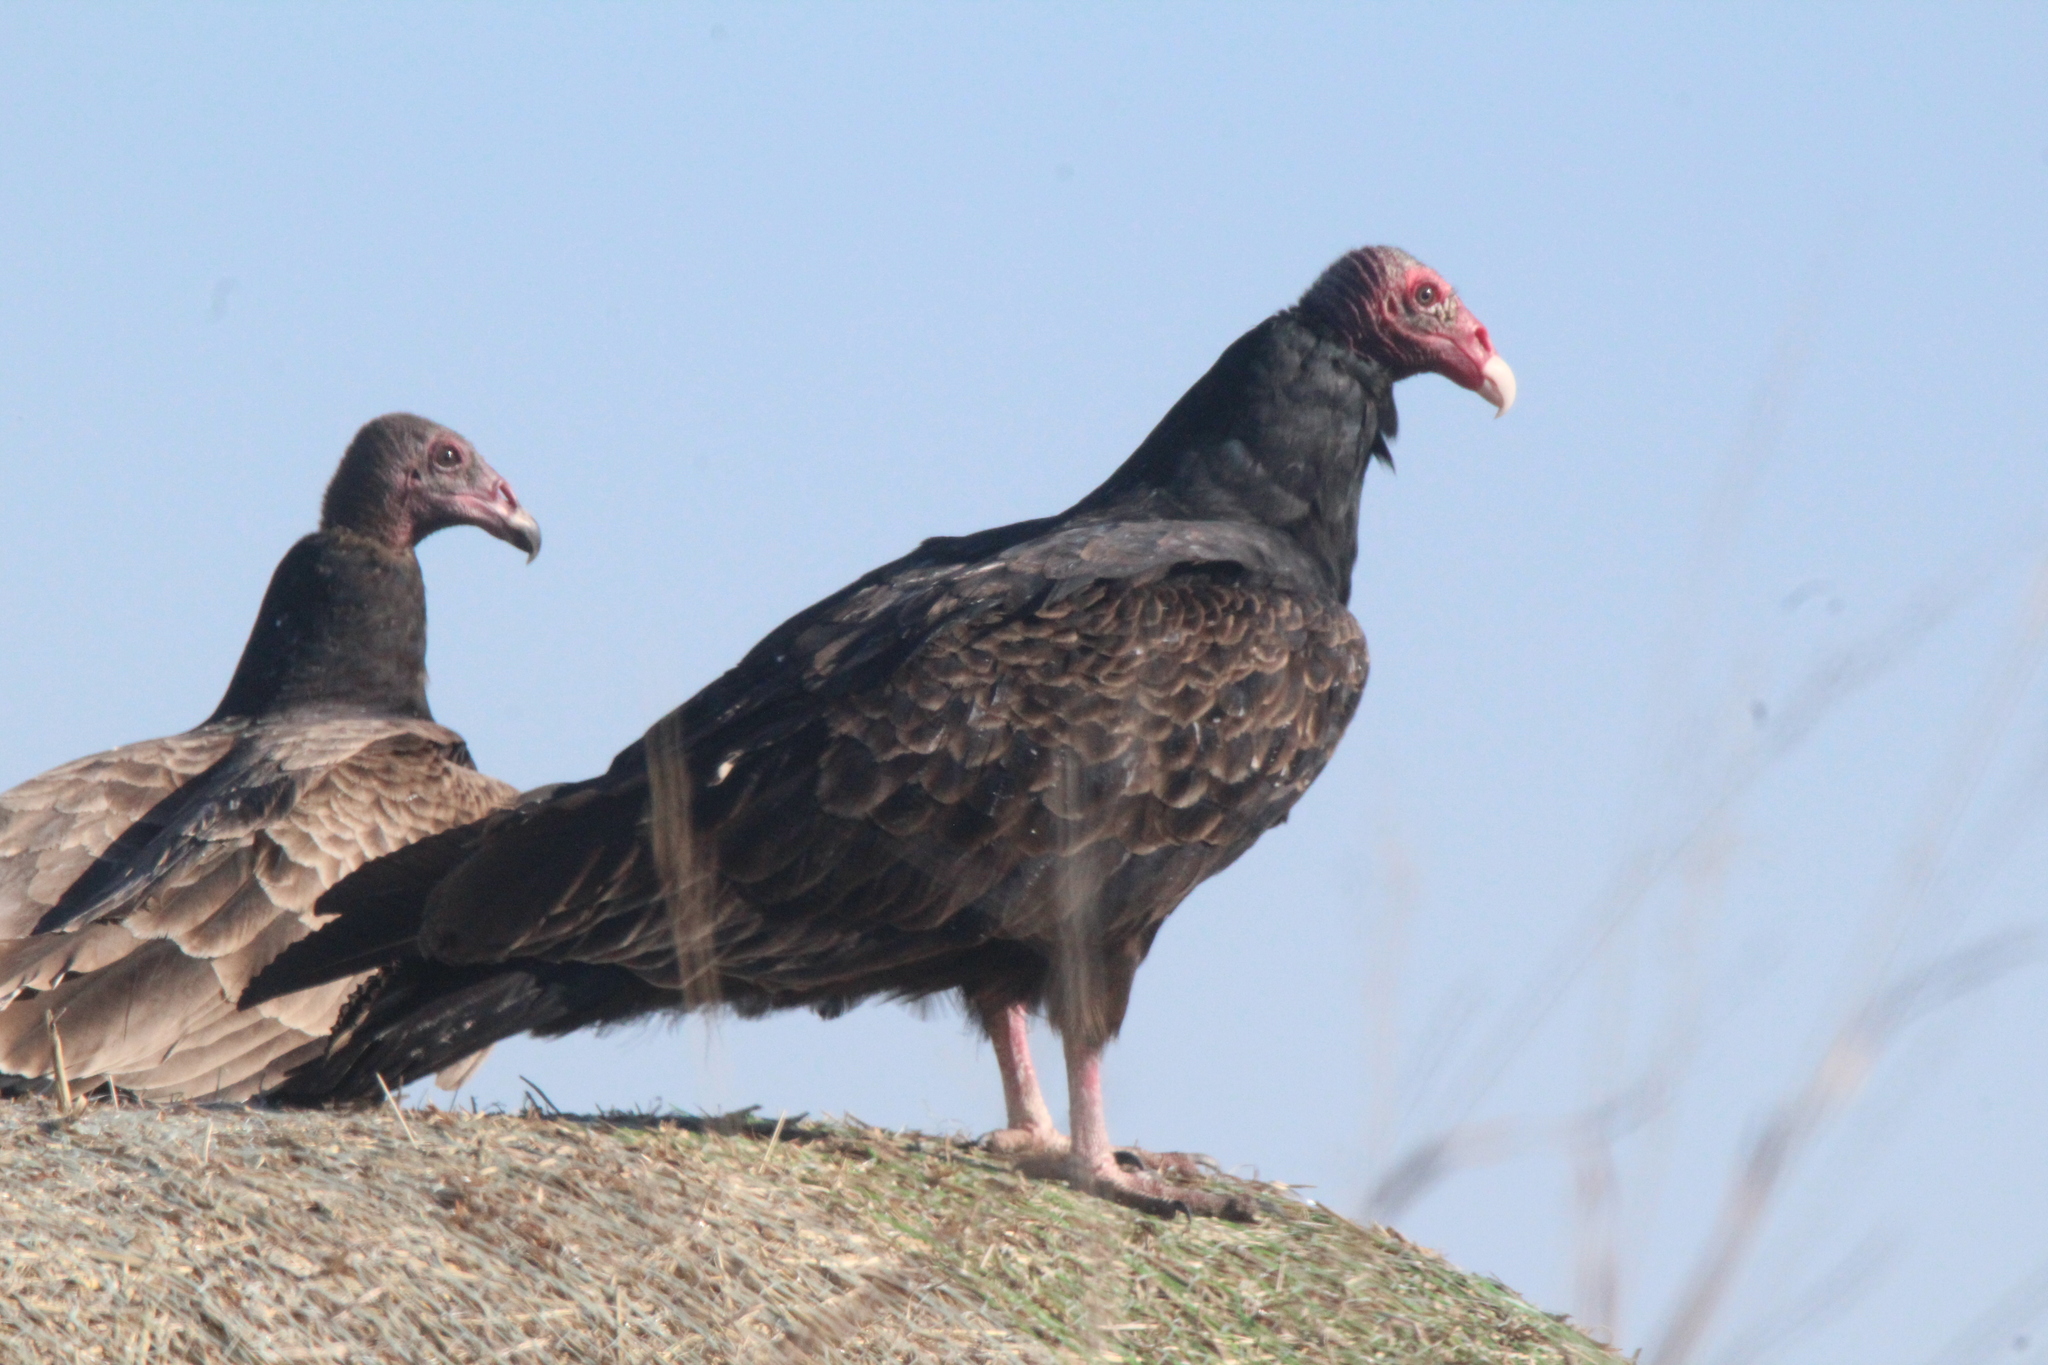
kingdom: Animalia
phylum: Chordata
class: Aves
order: Accipitriformes
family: Cathartidae
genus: Cathartes
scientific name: Cathartes aura
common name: Turkey vulture
